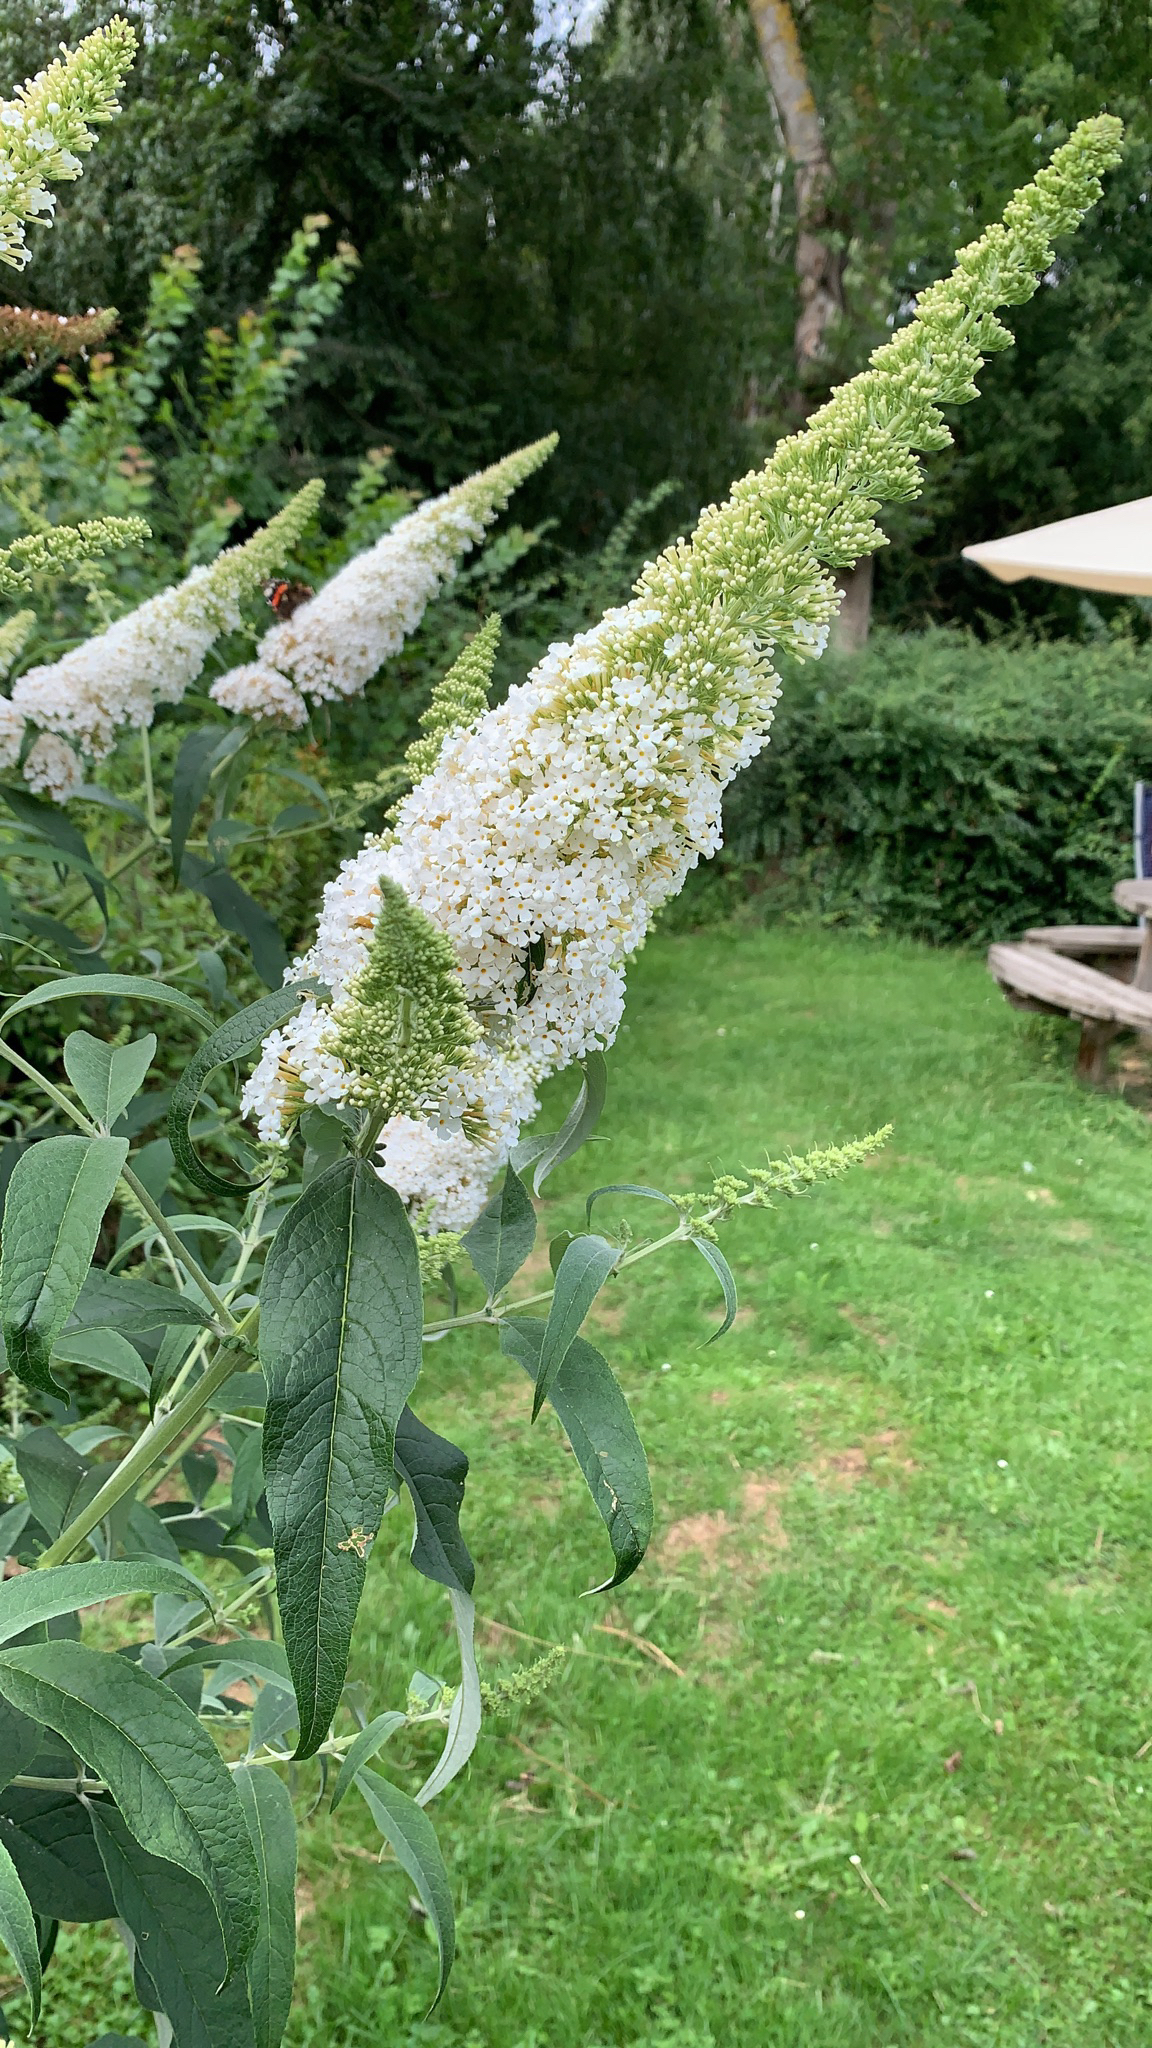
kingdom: Plantae
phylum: Tracheophyta
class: Magnoliopsida
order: Lamiales
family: Scrophulariaceae
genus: Buddleja
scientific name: Buddleja davidii
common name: Butterfly-bush
